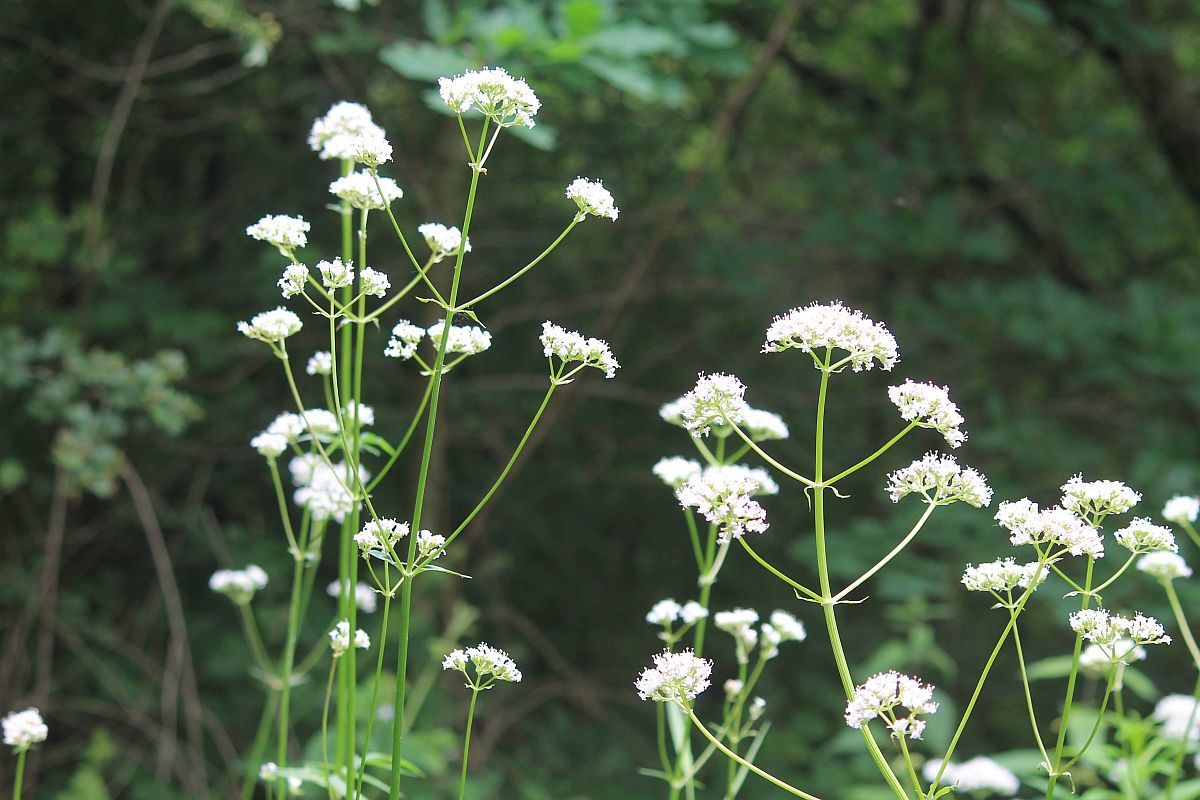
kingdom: Plantae
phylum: Tracheophyta
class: Magnoliopsida
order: Dipsacales
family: Caprifoliaceae
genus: Valeriana
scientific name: Valeriana officinalis
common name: Common valerian
